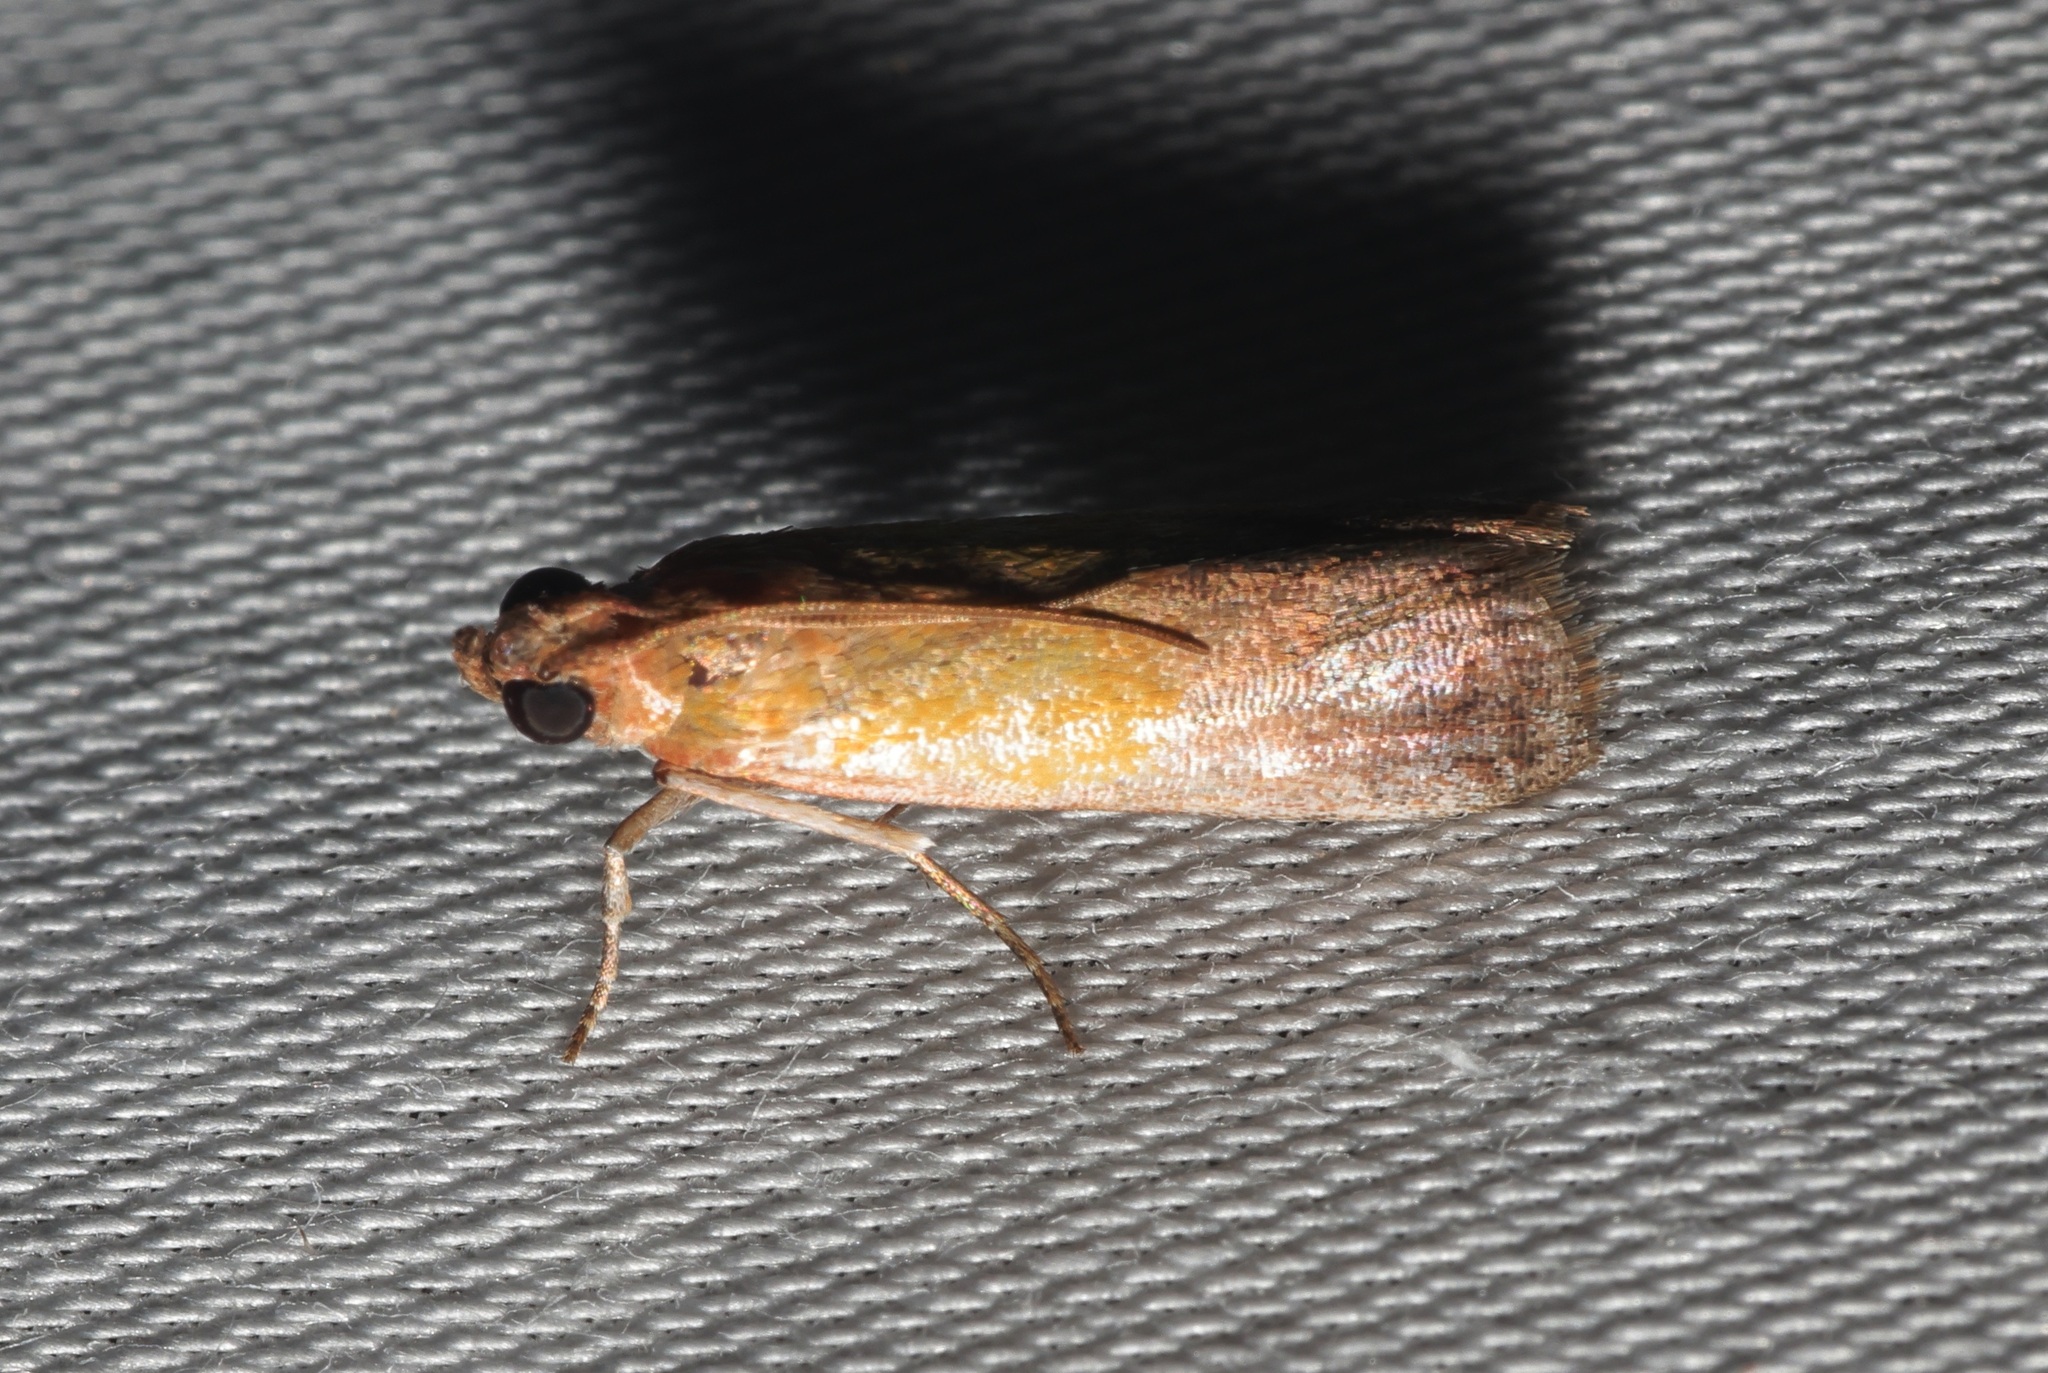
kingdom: Animalia
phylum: Arthropoda
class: Insecta
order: Lepidoptera
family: Pyralidae
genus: Piesmopoda
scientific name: Piesmopoda
